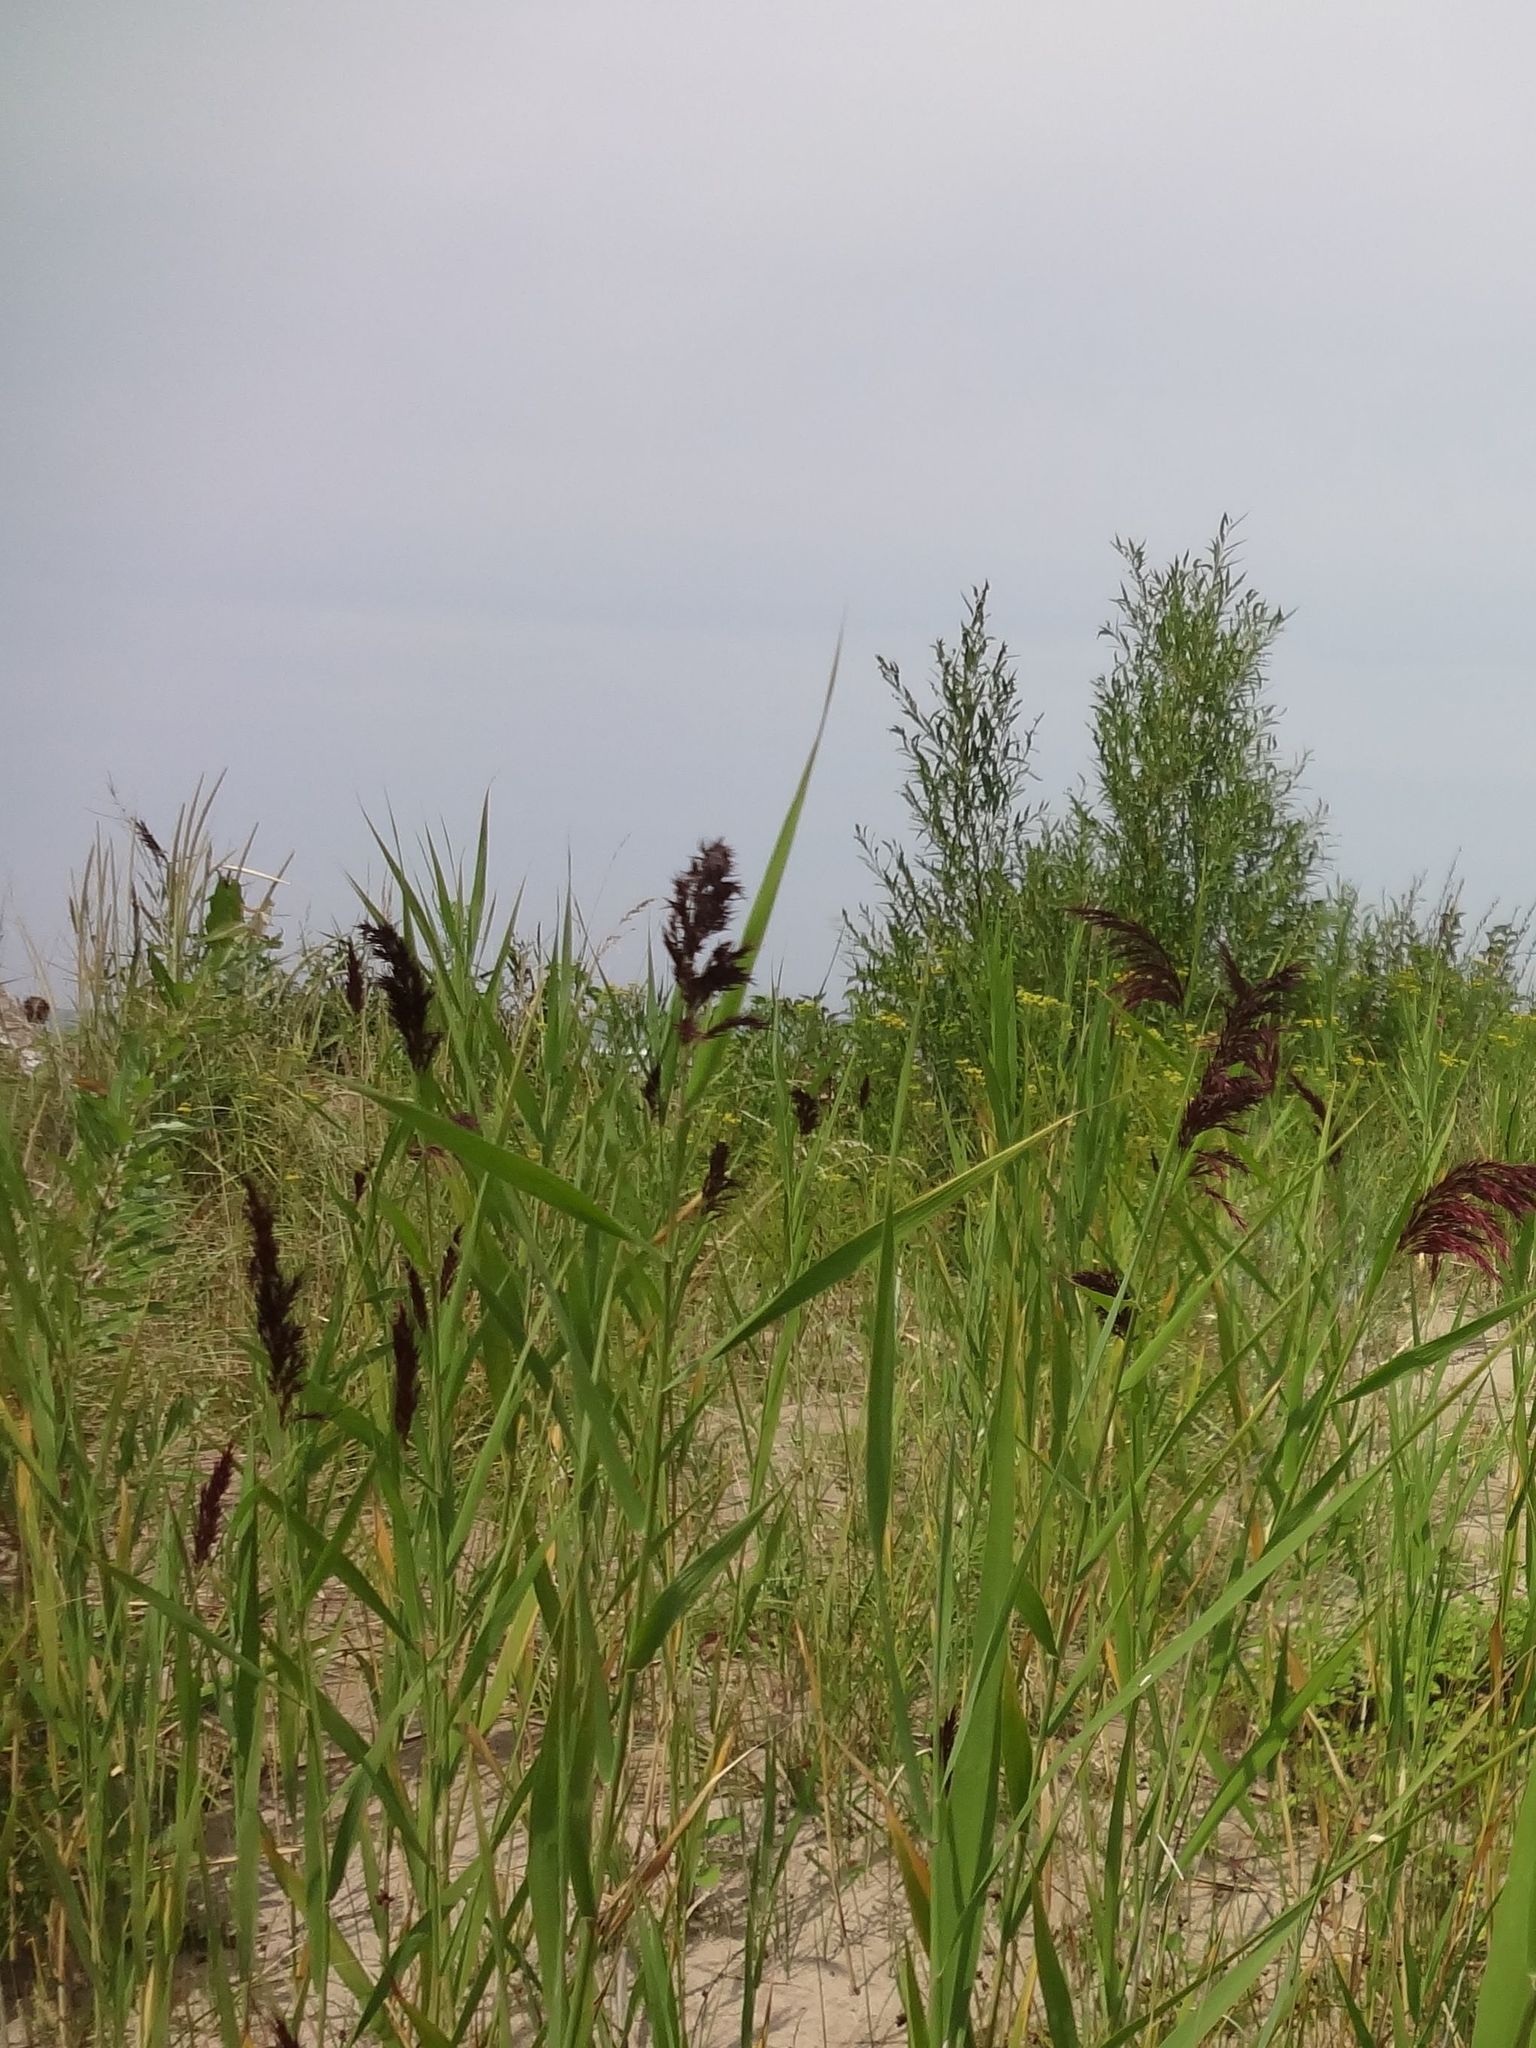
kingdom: Plantae
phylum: Tracheophyta
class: Liliopsida
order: Poales
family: Poaceae
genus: Phragmites
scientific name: Phragmites australis
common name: Common reed
